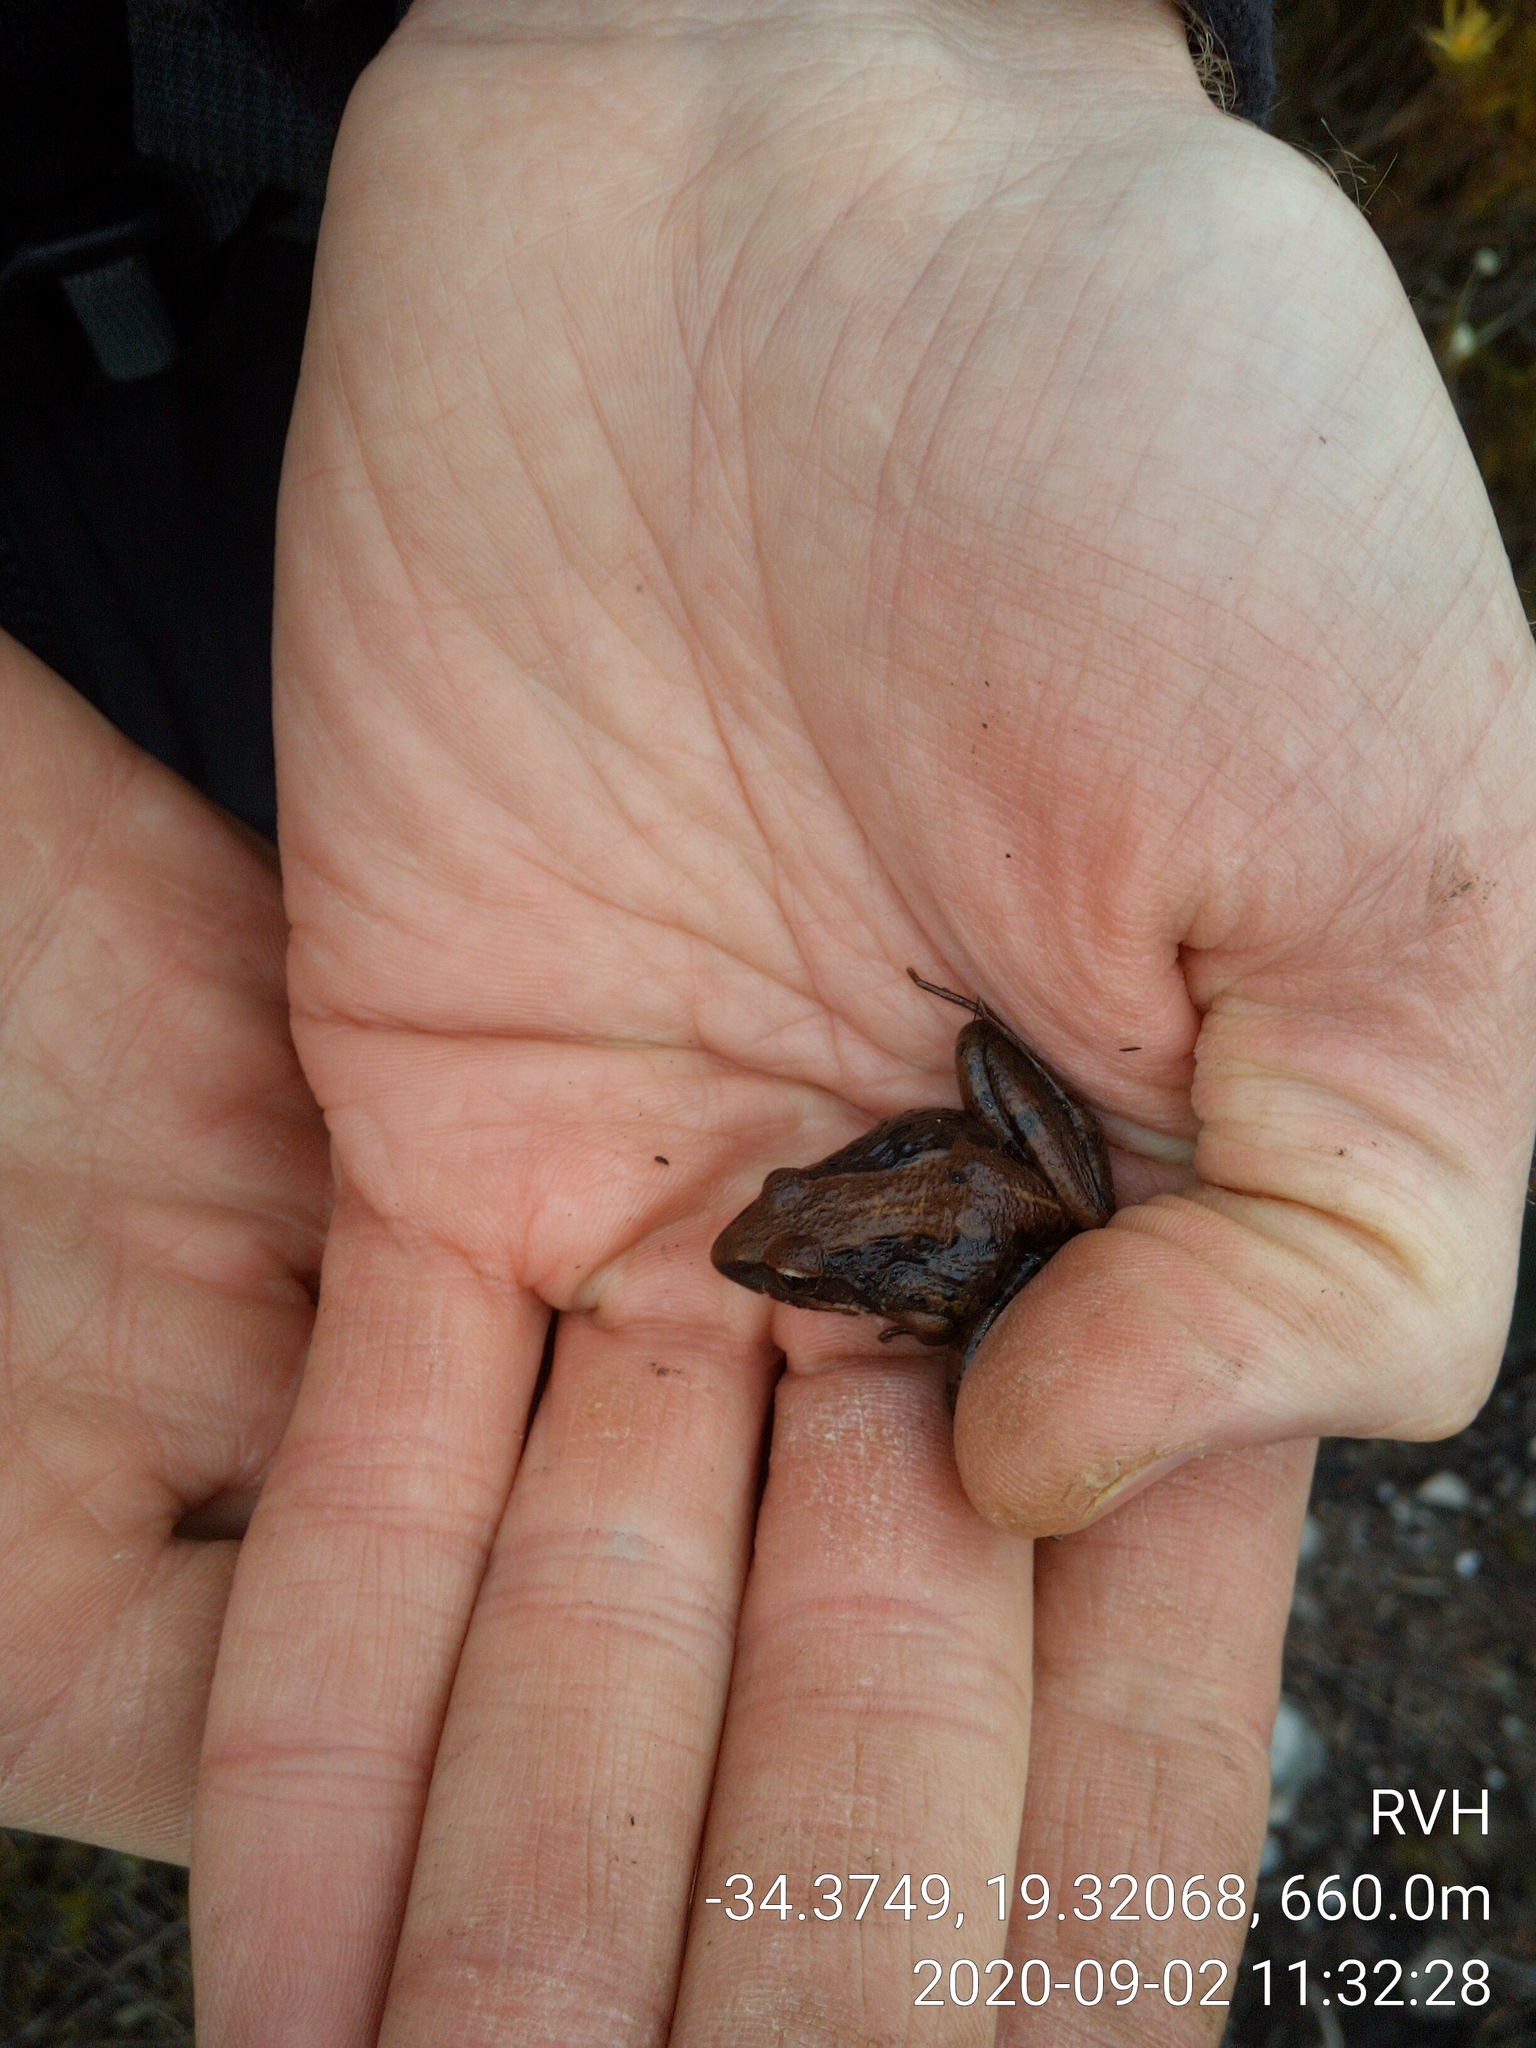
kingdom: Animalia
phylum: Chordata
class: Amphibia
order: Anura
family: Pyxicephalidae
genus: Strongylopus
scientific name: Strongylopus grayii
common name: Gray's stream frog
